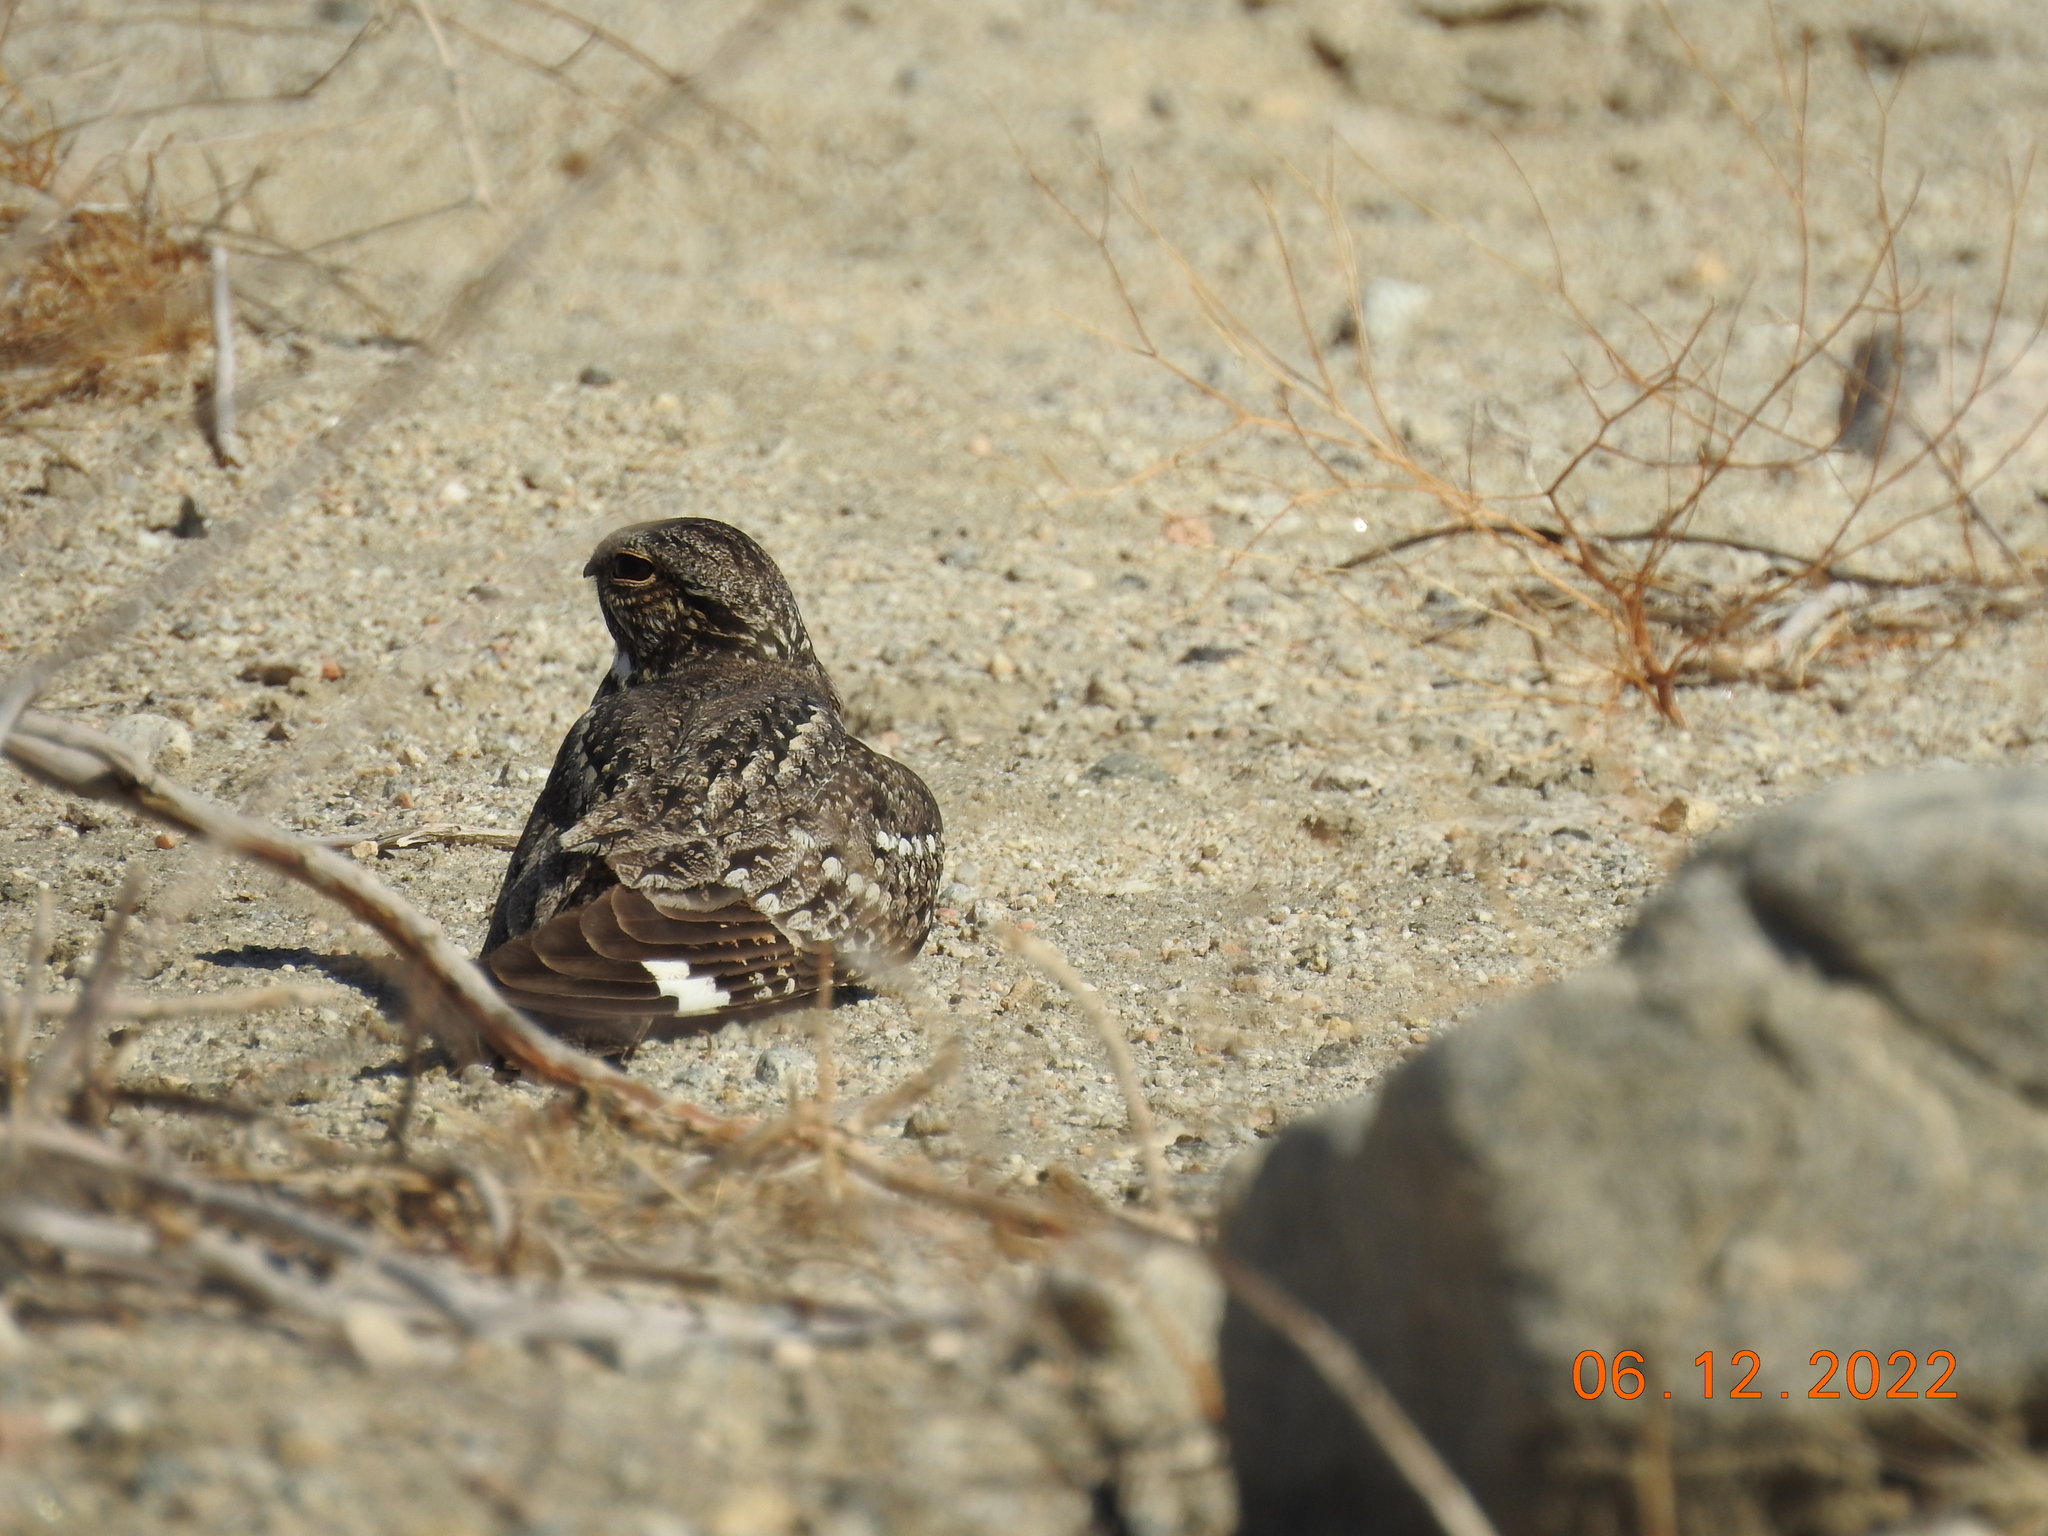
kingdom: Animalia
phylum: Chordata
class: Aves
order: Caprimulgiformes
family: Caprimulgidae
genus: Chordeiles
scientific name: Chordeiles acutipennis
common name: Lesser nighthawk
